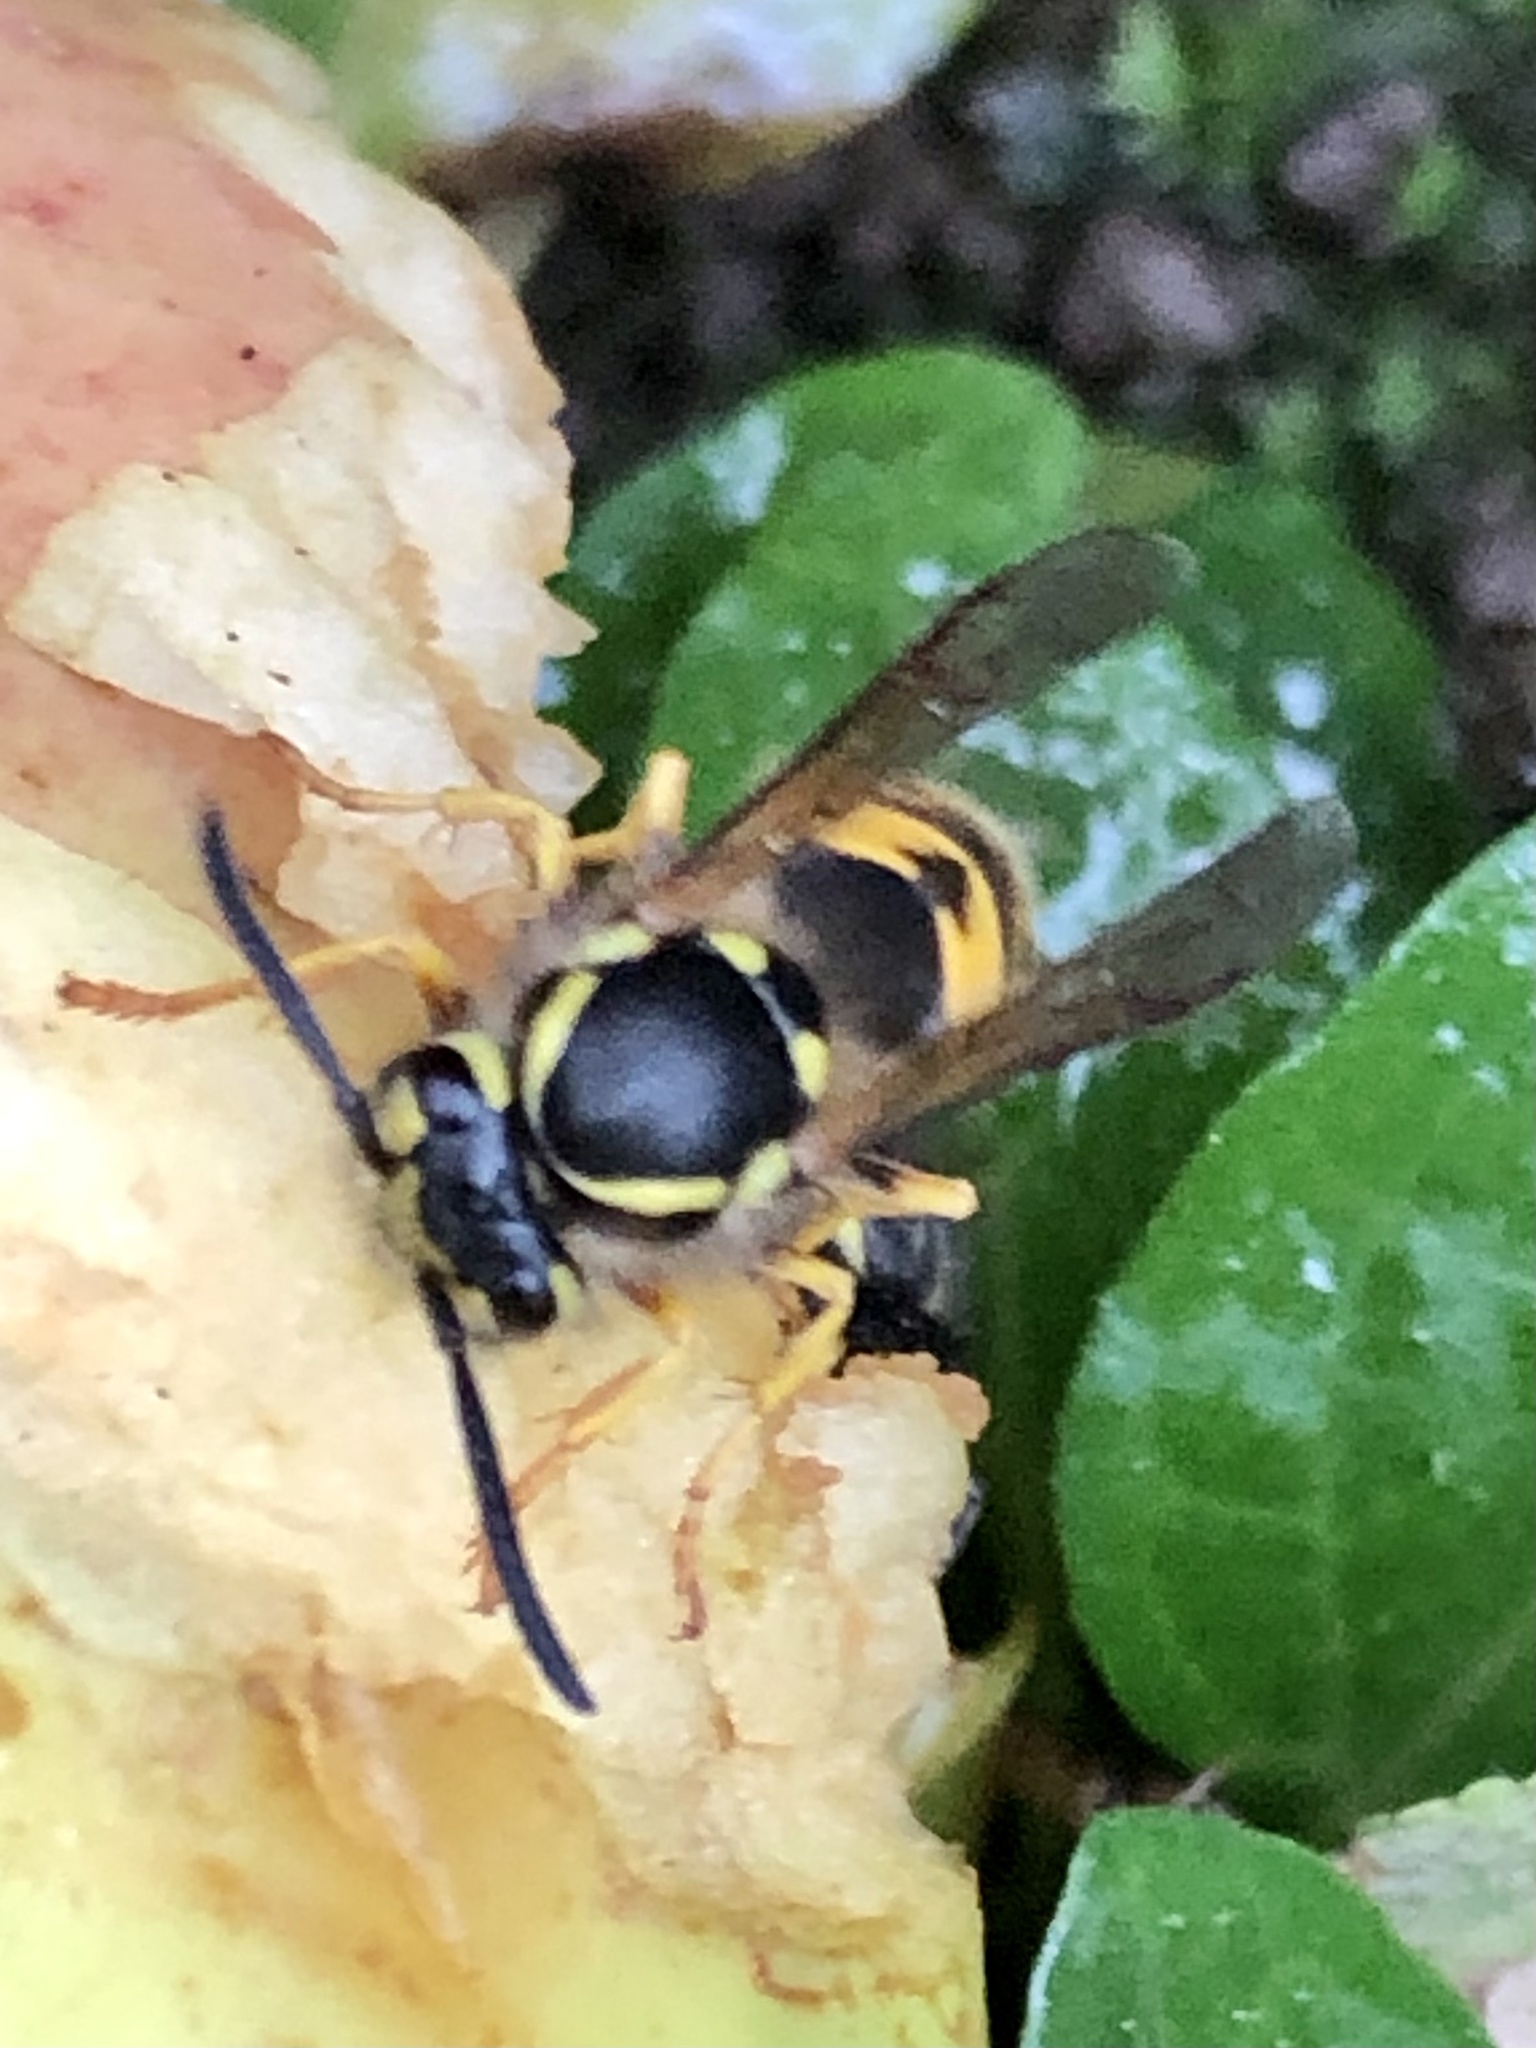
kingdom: Animalia
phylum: Arthropoda
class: Insecta
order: Hymenoptera
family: Vespidae
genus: Vespula
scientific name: Vespula germanica
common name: German wasp
